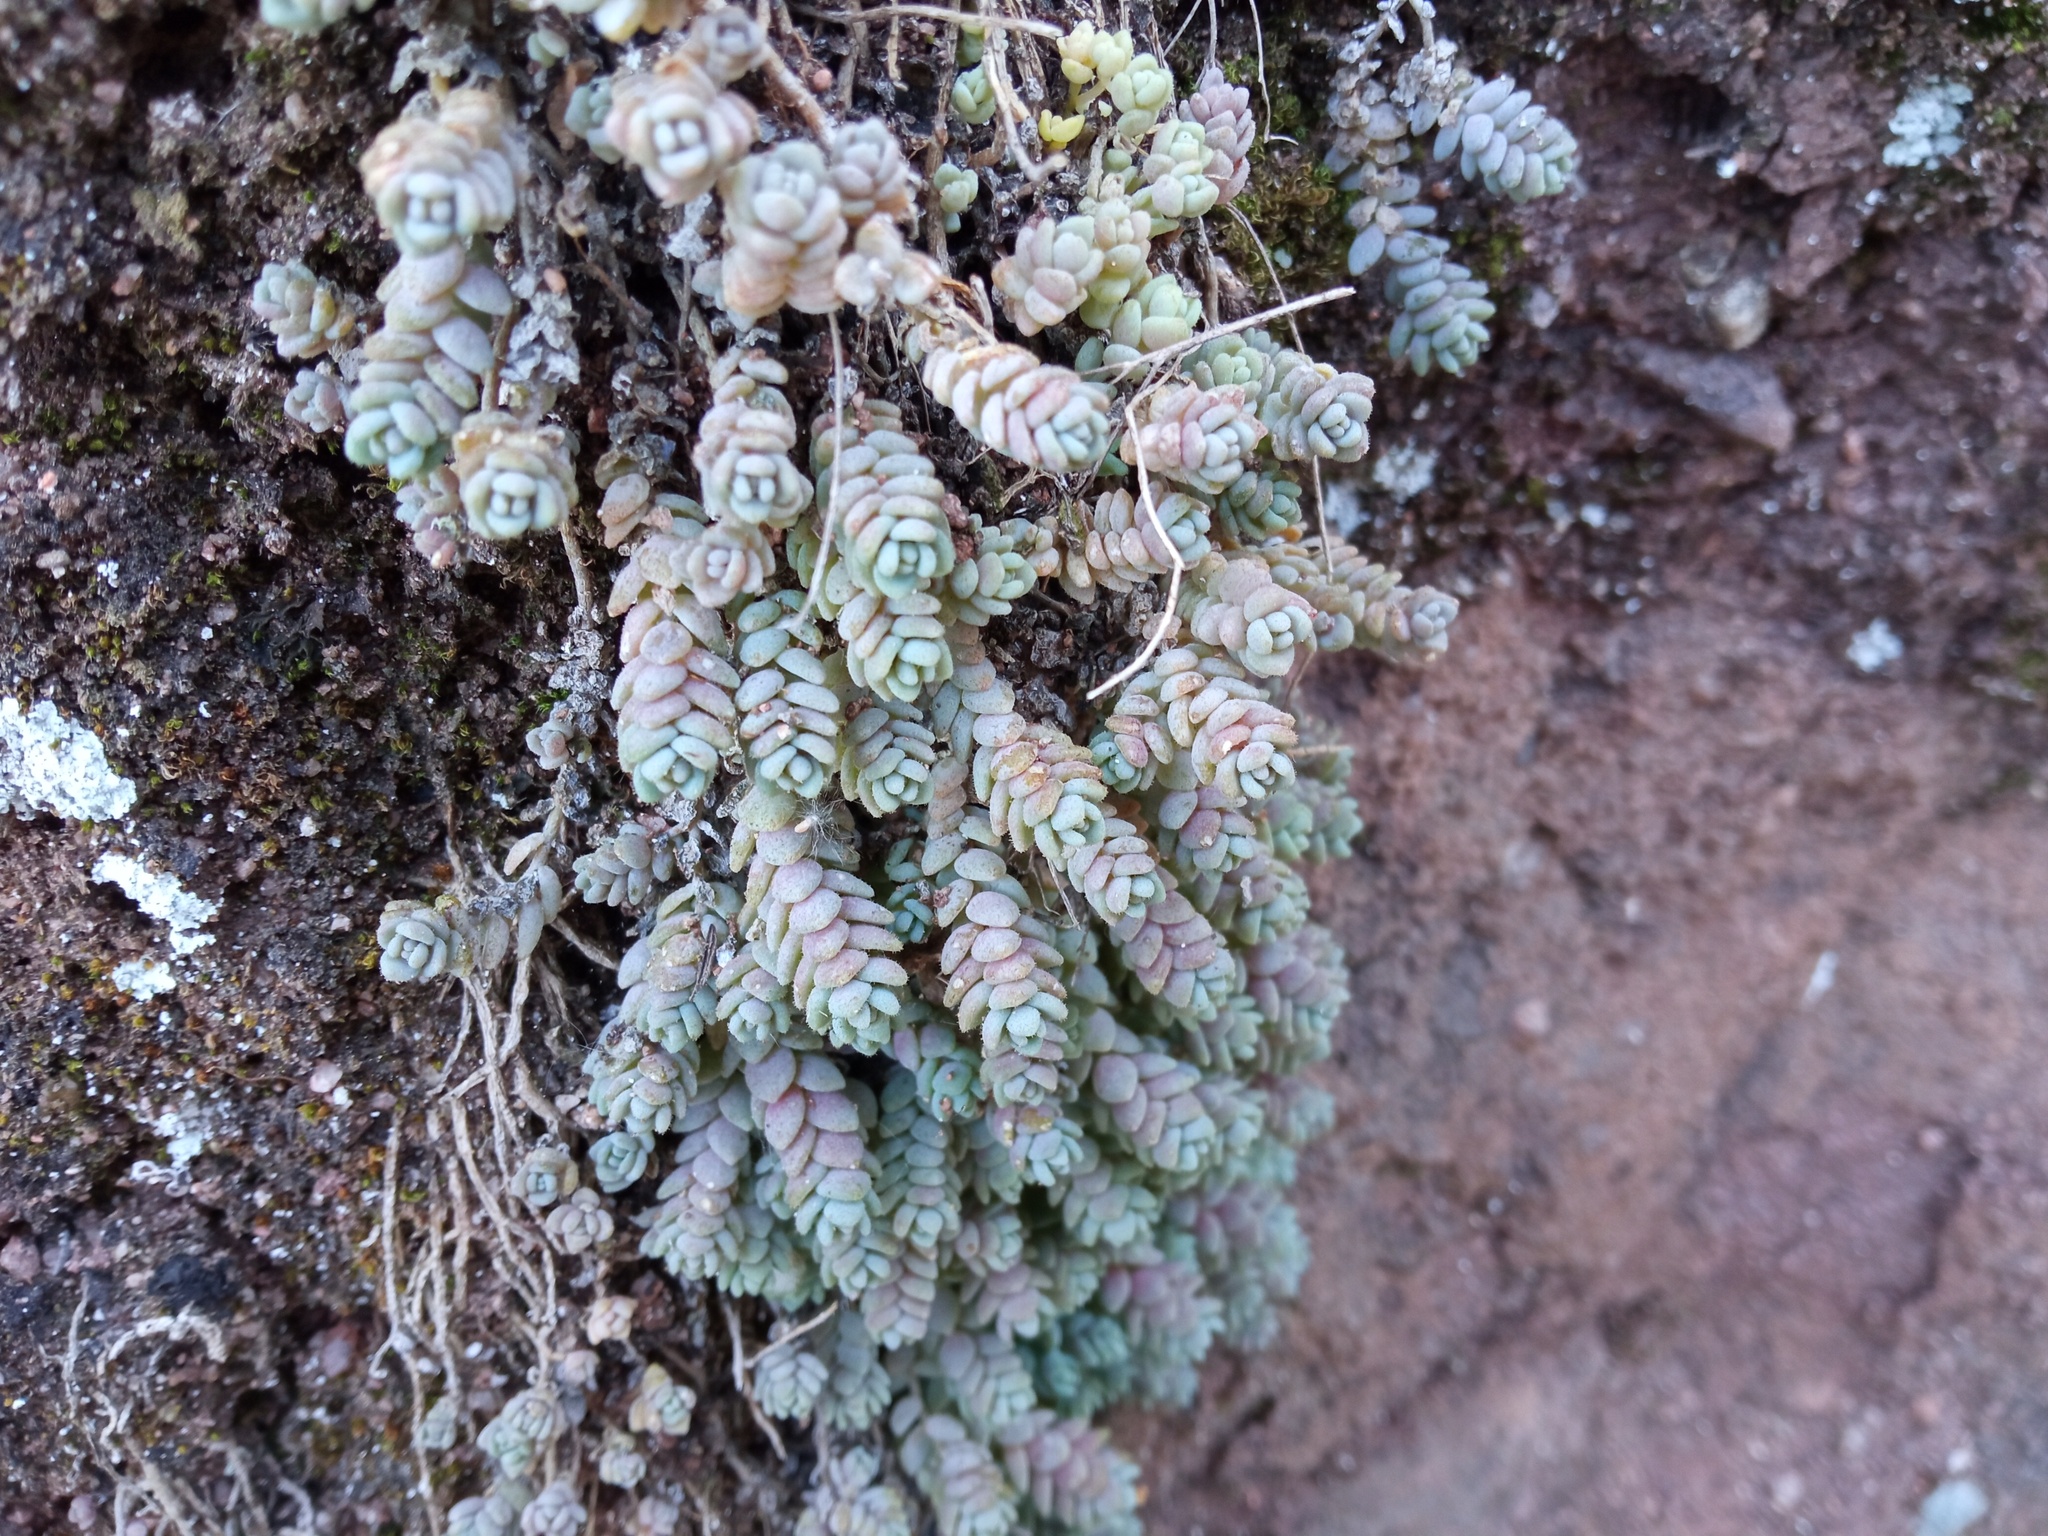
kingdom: Plantae
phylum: Tracheophyta
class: Magnoliopsida
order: Saxifragales
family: Crassulaceae
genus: Sedum
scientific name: Sedum dasyphyllum
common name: Thick-leaf stonecrop
